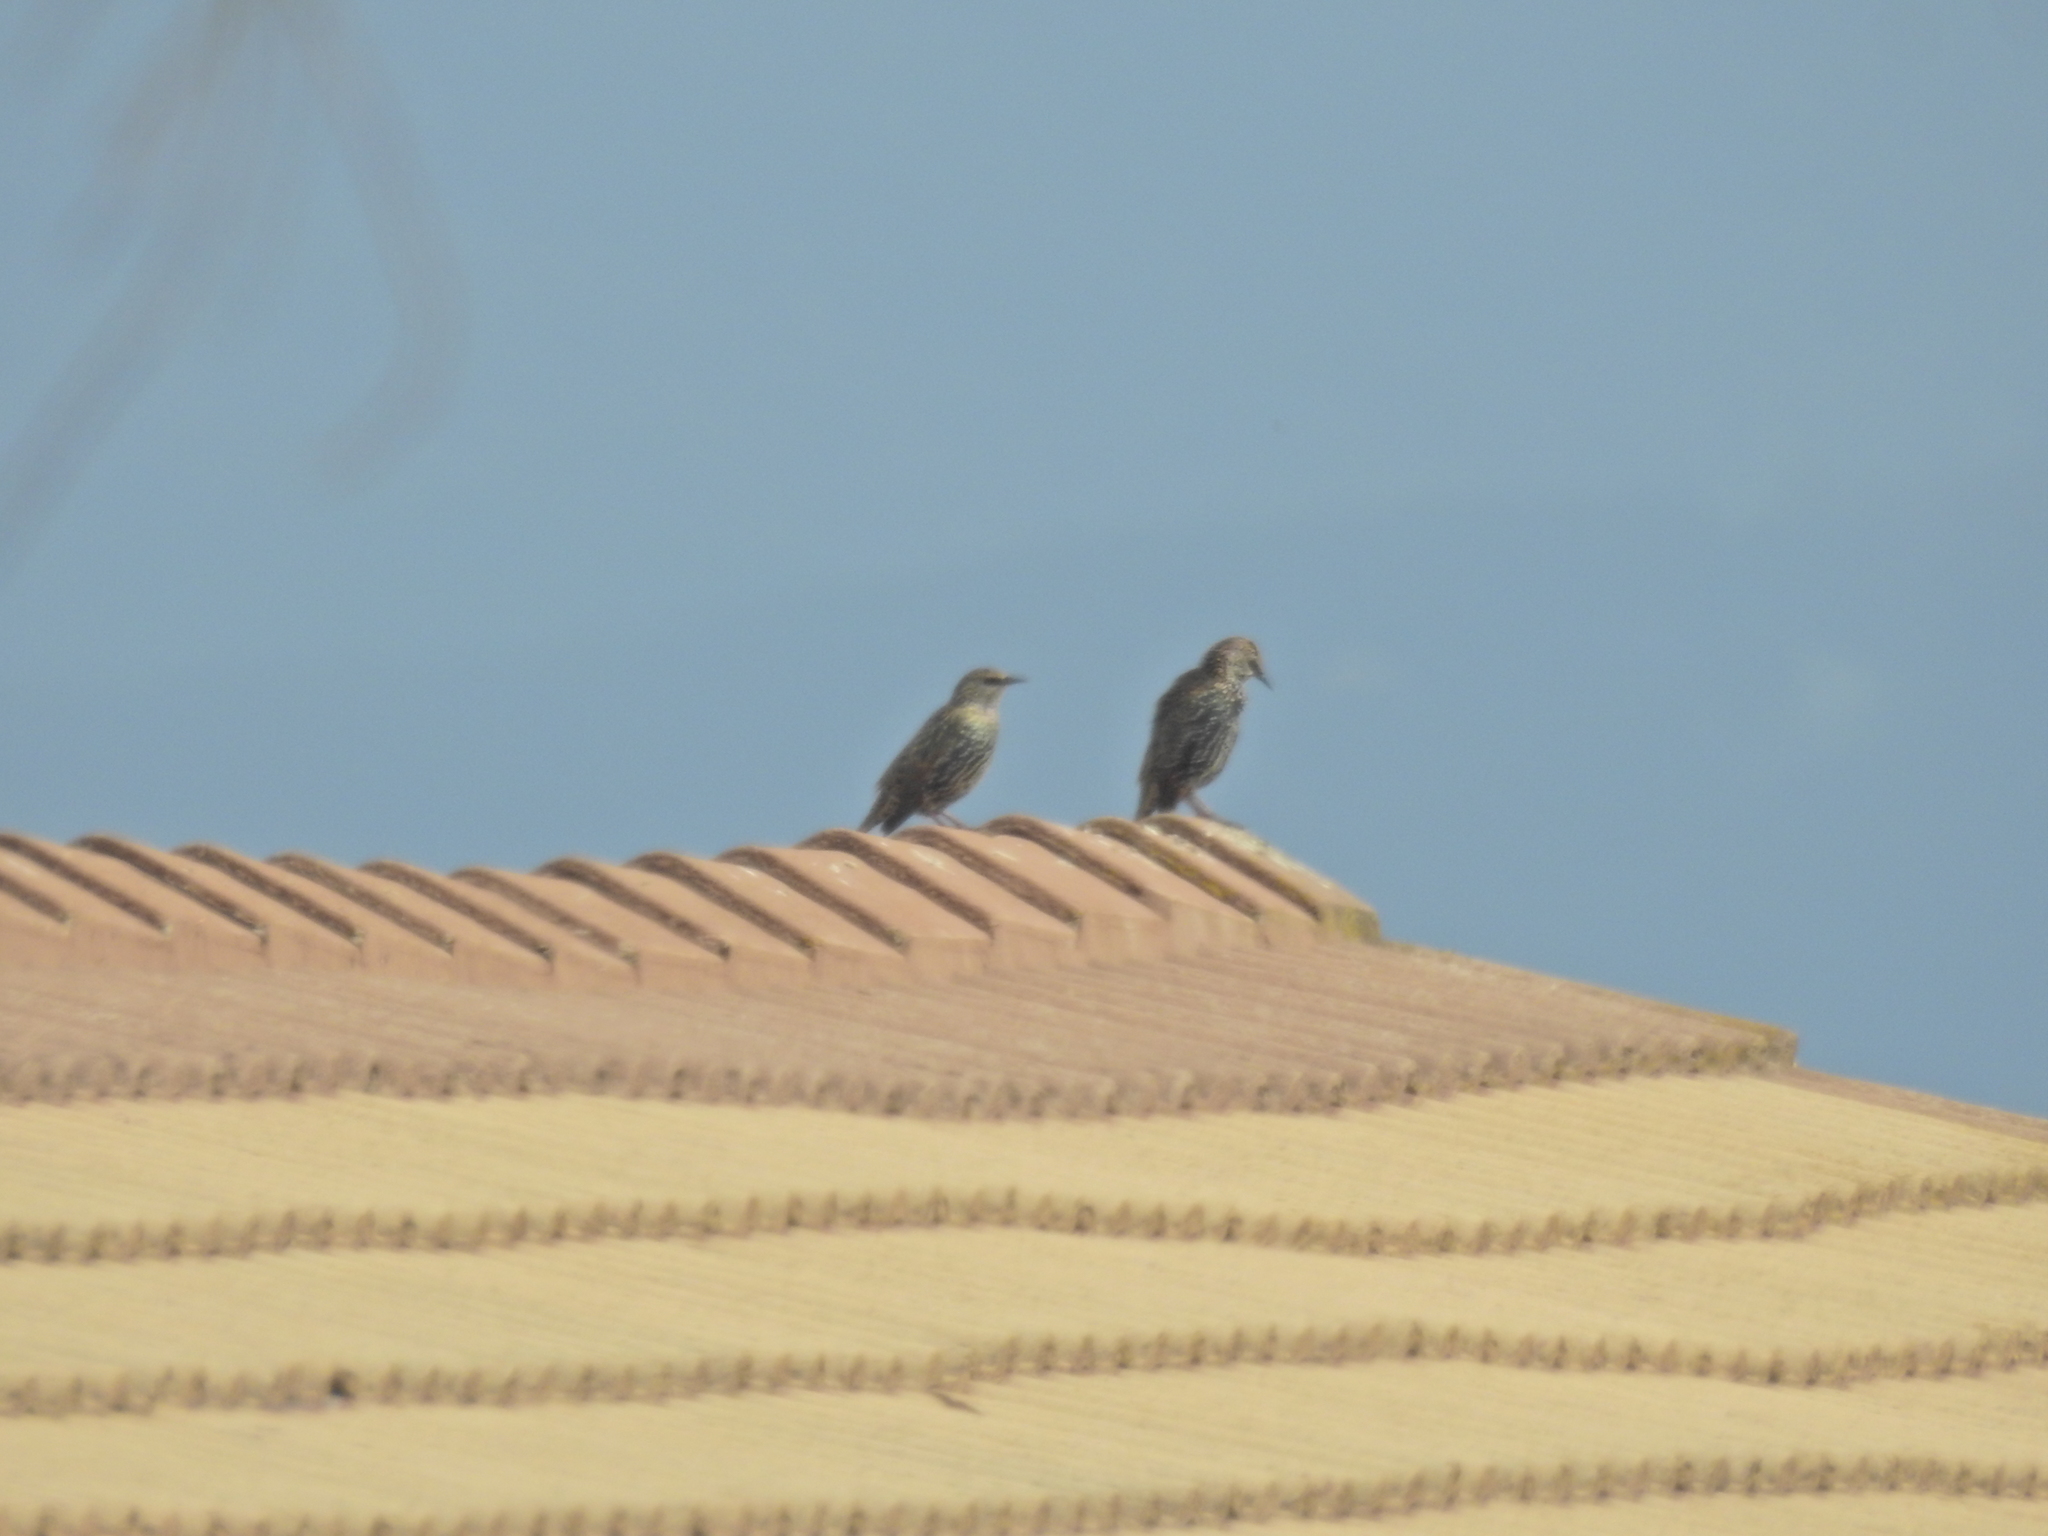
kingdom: Animalia
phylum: Chordata
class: Aves
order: Passeriformes
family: Sturnidae
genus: Sturnus
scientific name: Sturnus vulgaris
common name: Common starling
